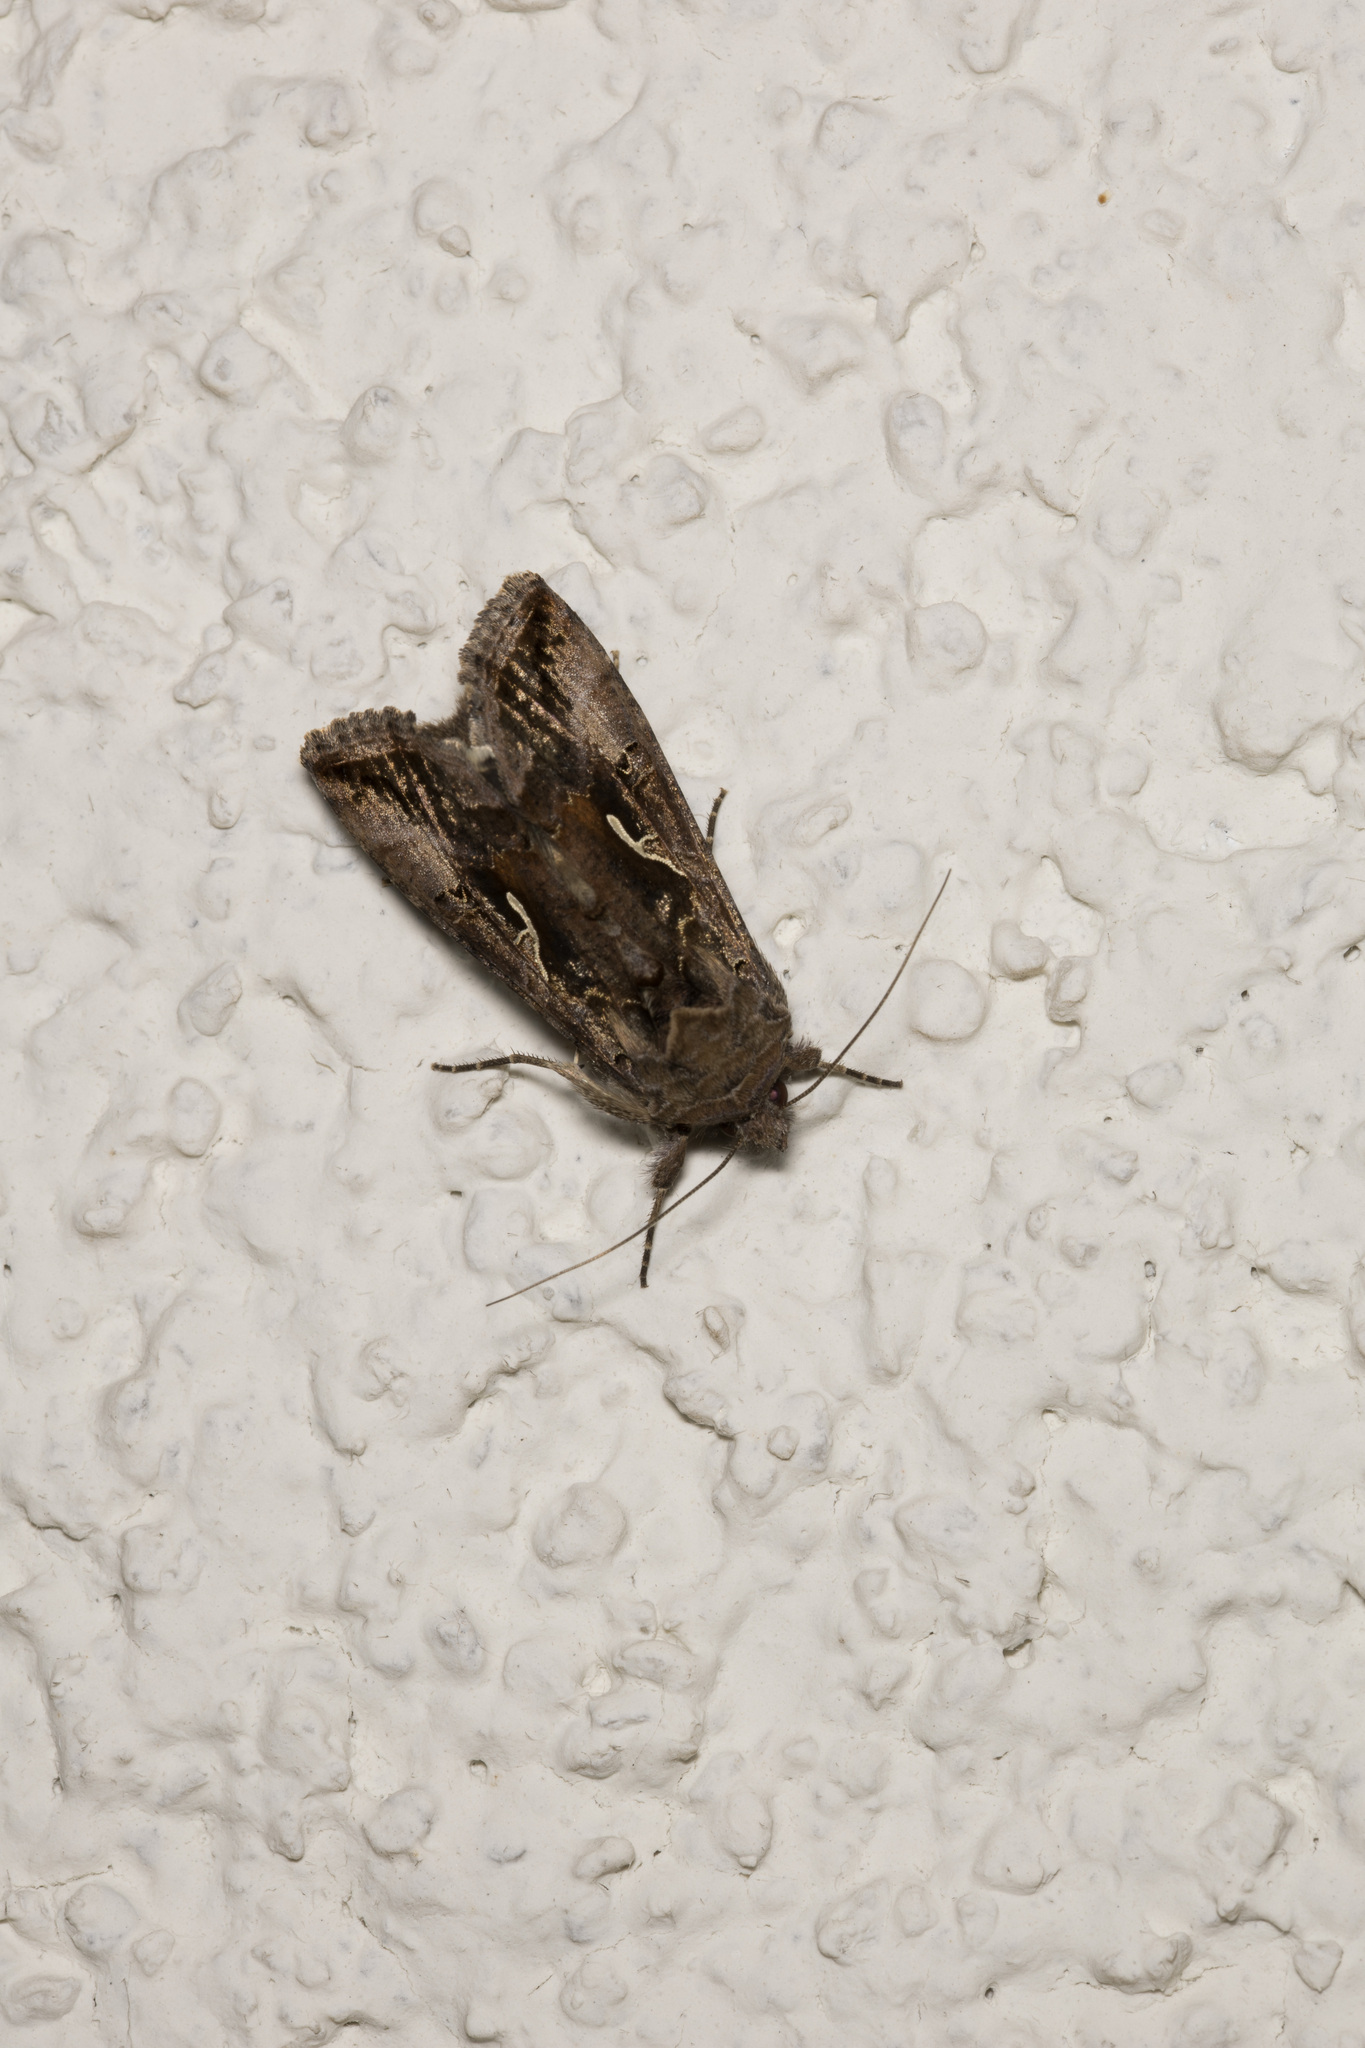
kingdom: Animalia
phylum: Arthropoda
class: Insecta
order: Lepidoptera
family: Noctuidae
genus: Autographa
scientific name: Autographa gamma
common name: Silver y
